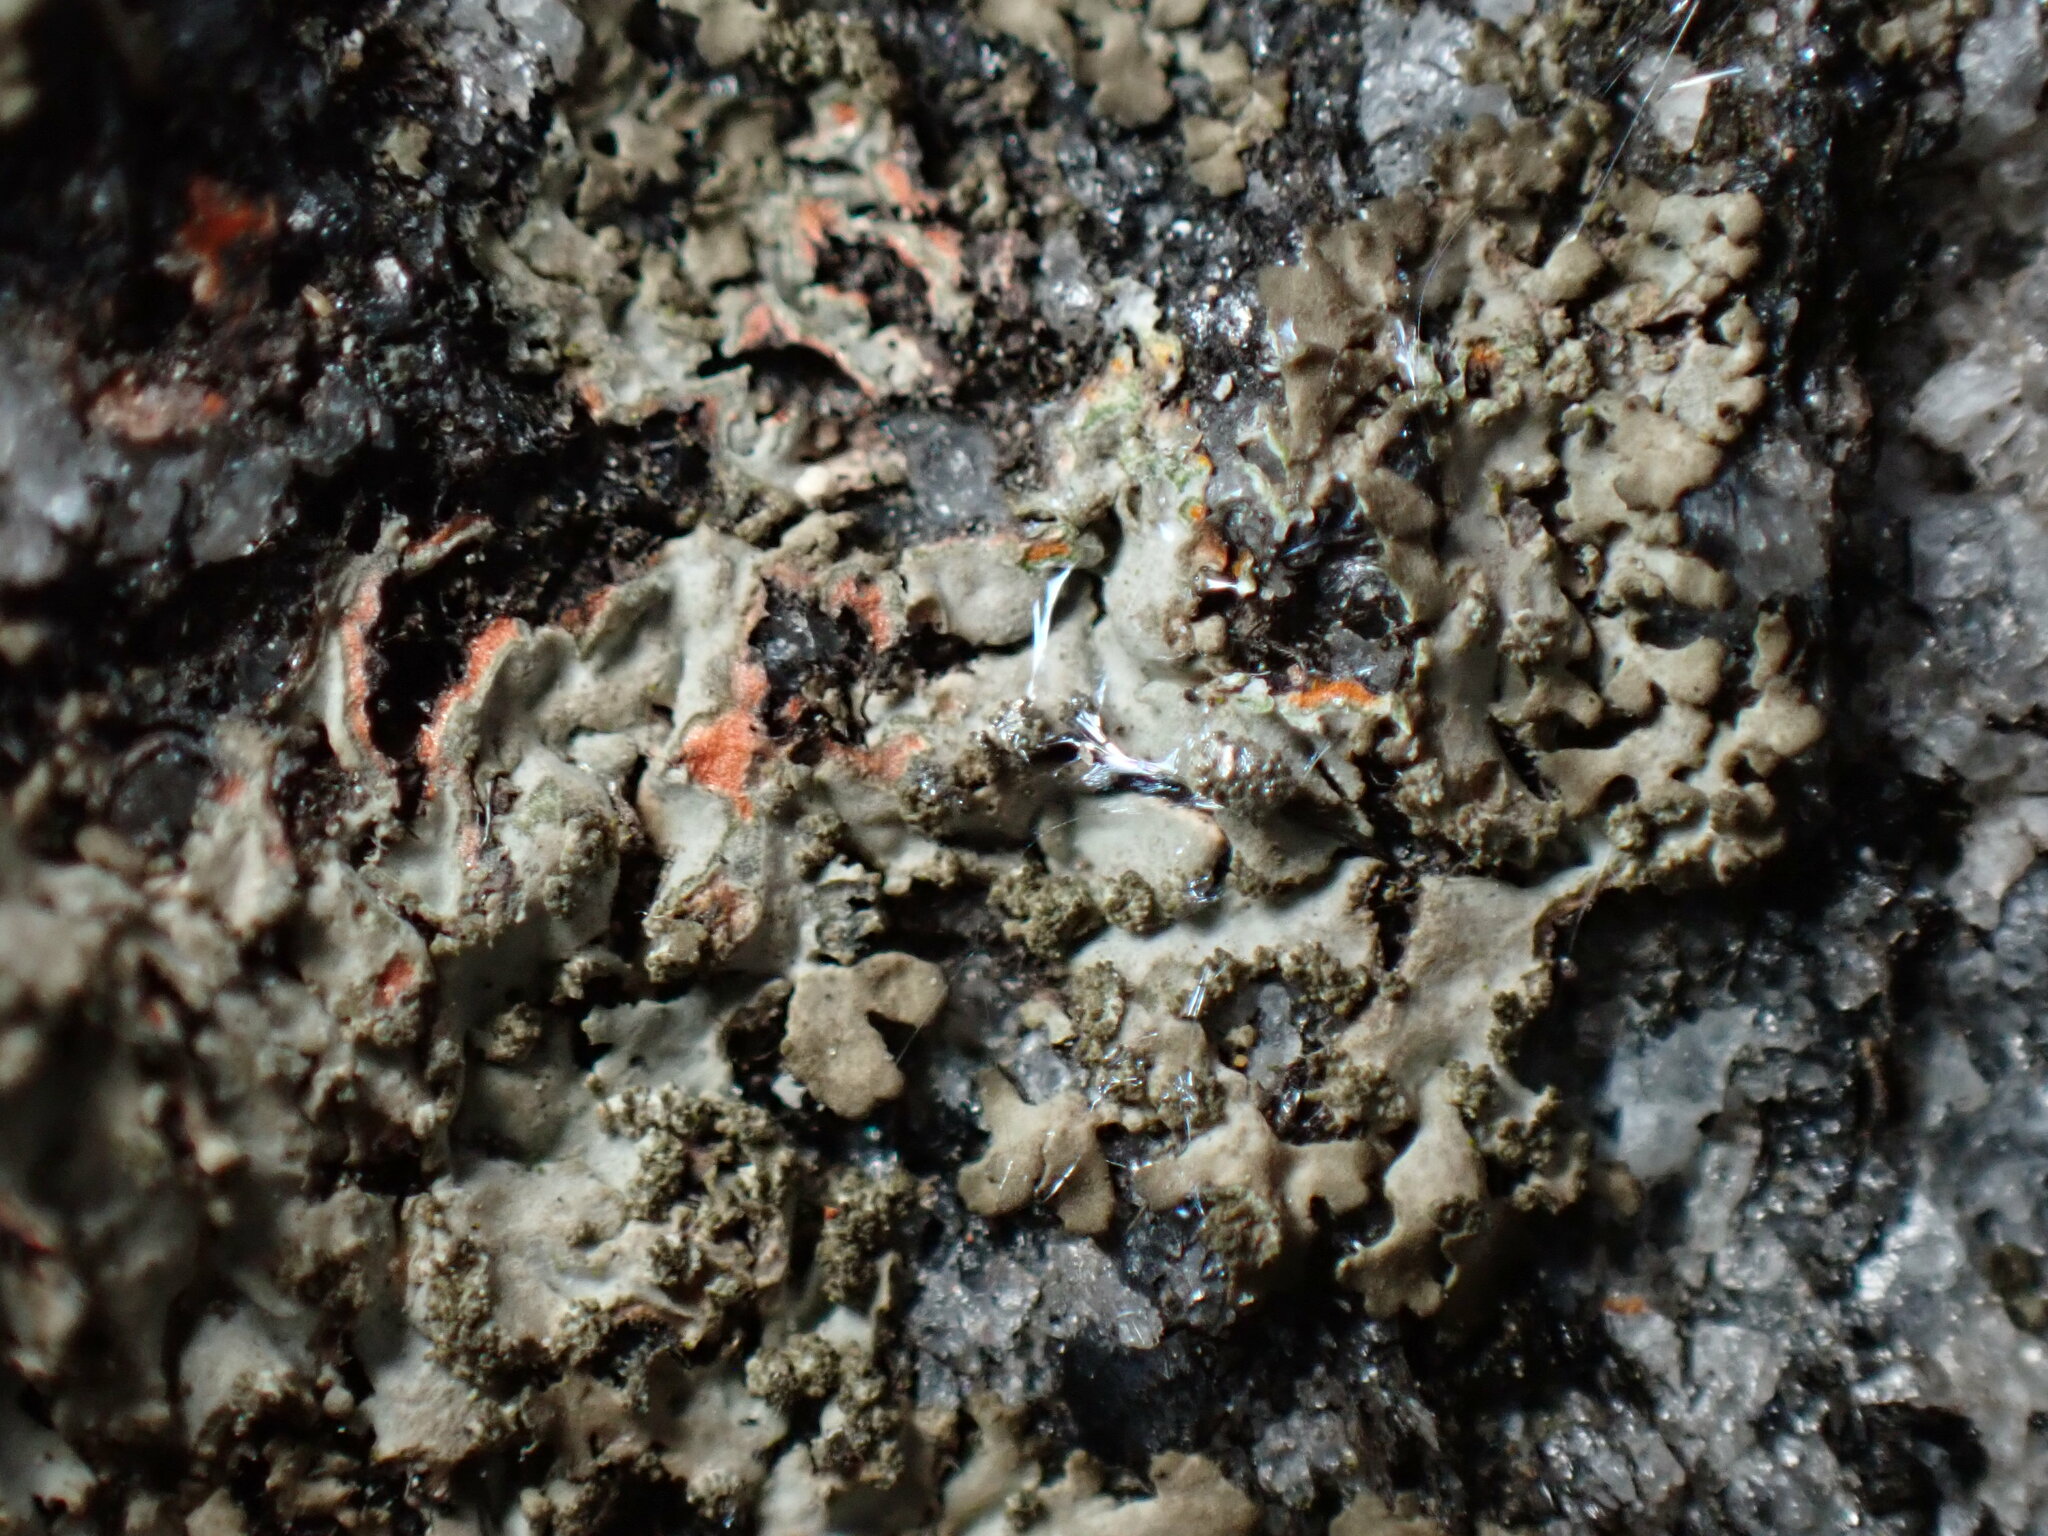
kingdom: Fungi
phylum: Ascomycota
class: Lecanoromycetes
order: Caliciales
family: Physciaceae
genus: Phaeophyscia
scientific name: Phaeophyscia rubropulchra
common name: Orange-cored shadow lichen
